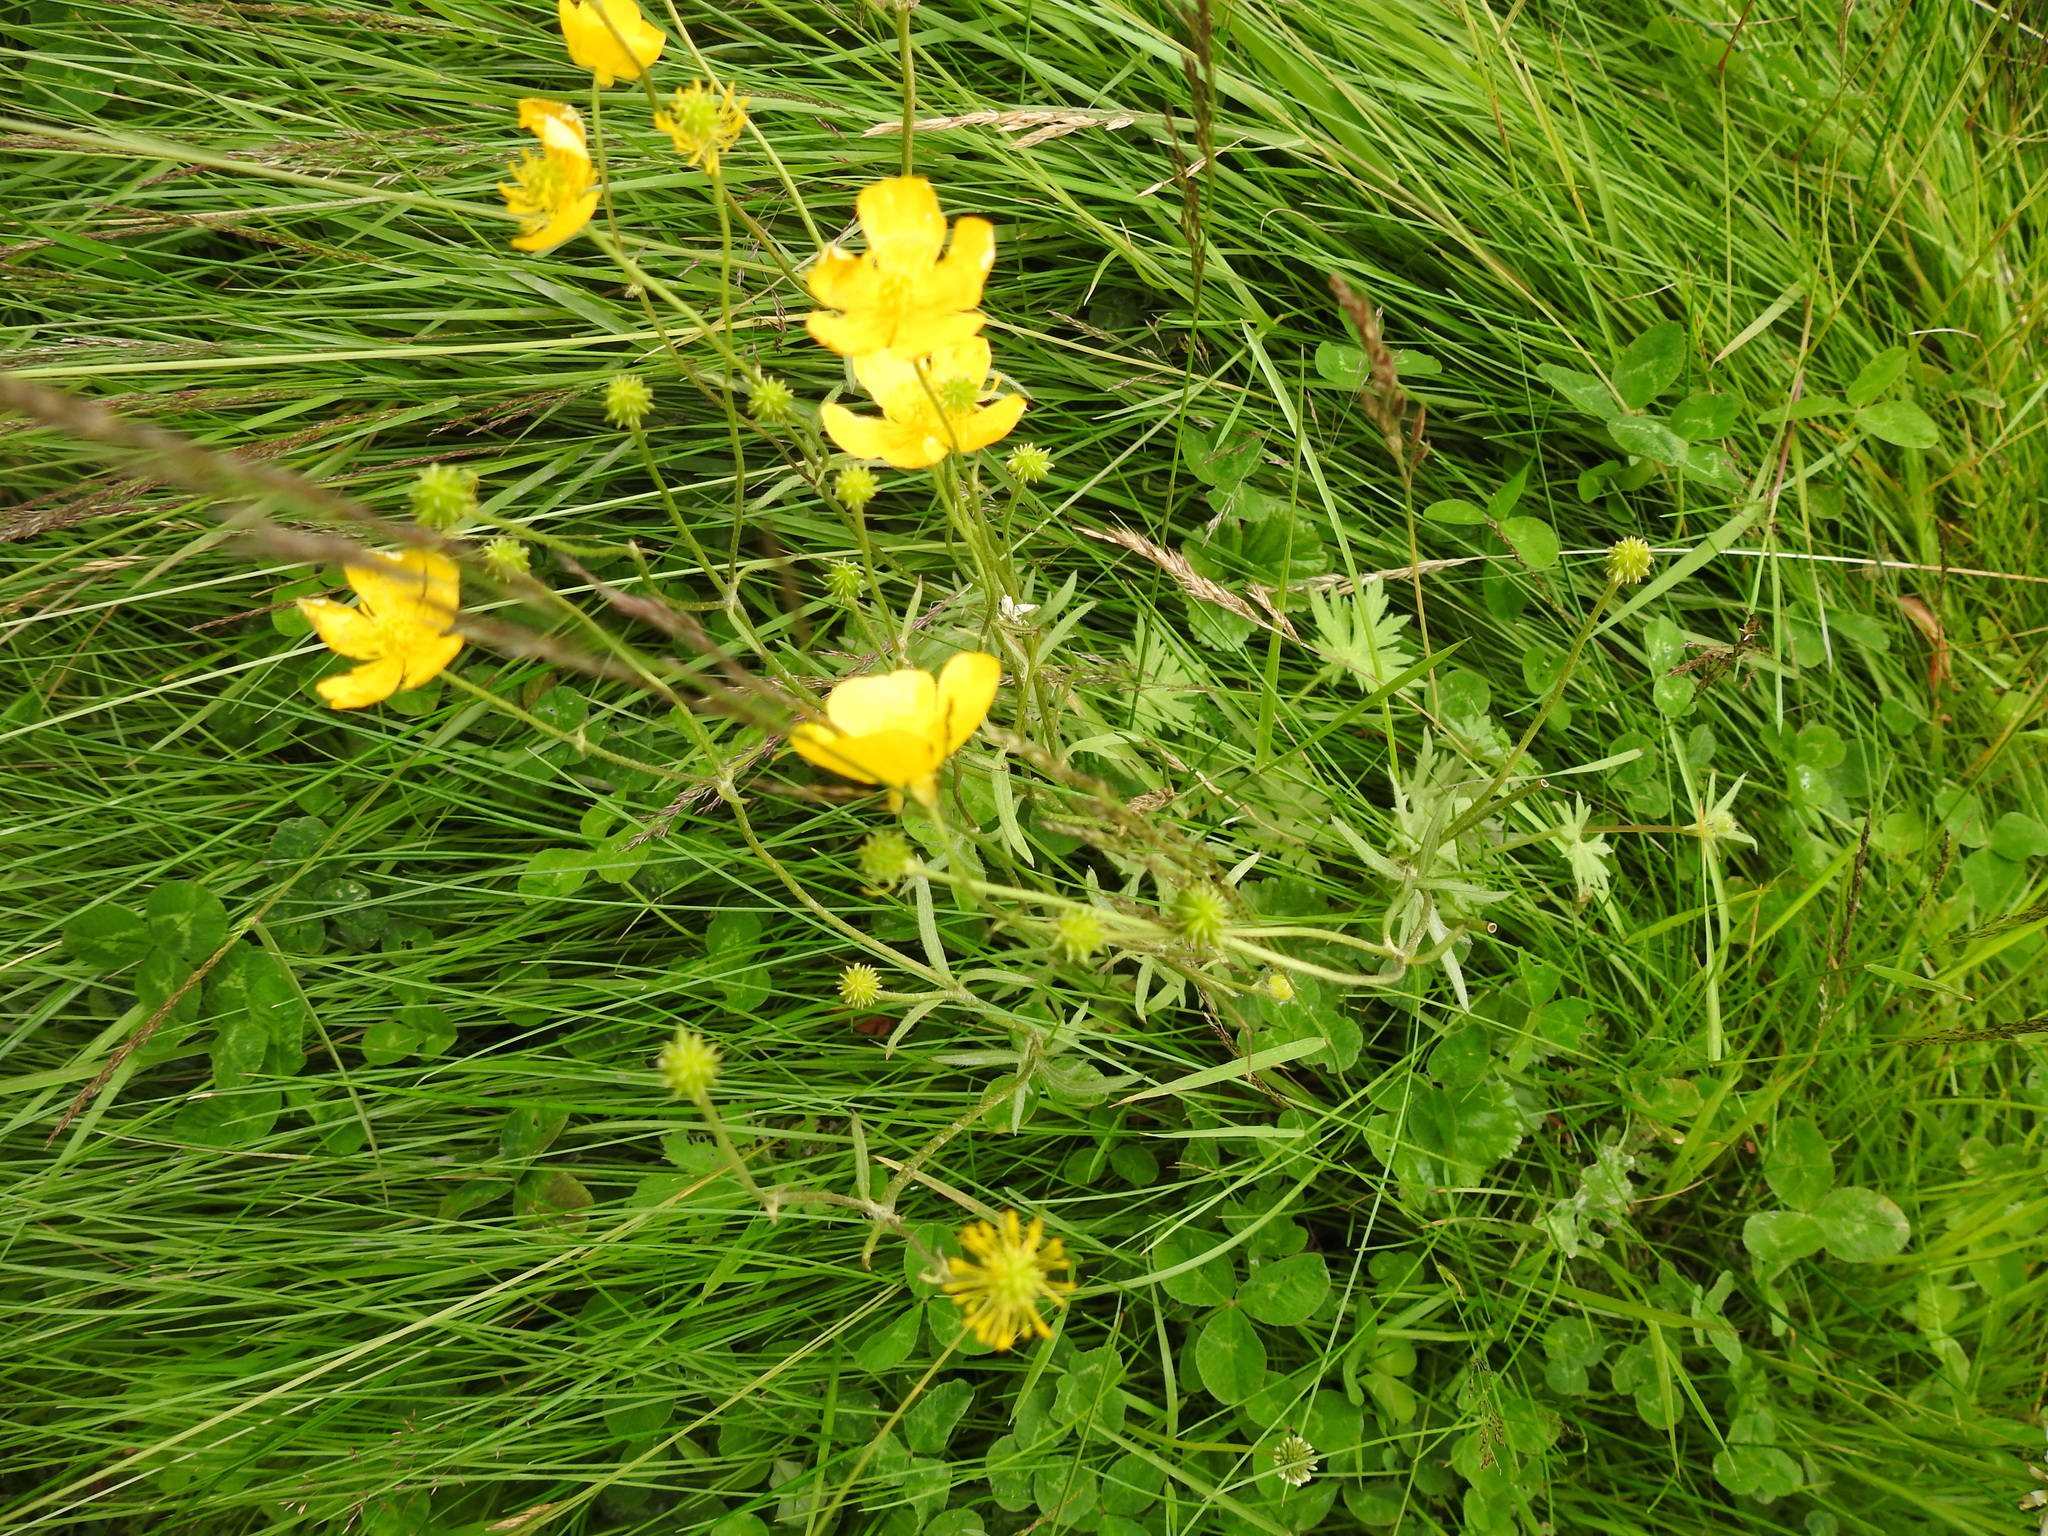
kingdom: Plantae
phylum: Tracheophyta
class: Magnoliopsida
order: Ranunculales
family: Ranunculaceae
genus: Ranunculus
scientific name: Ranunculus acris
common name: Meadow buttercup
